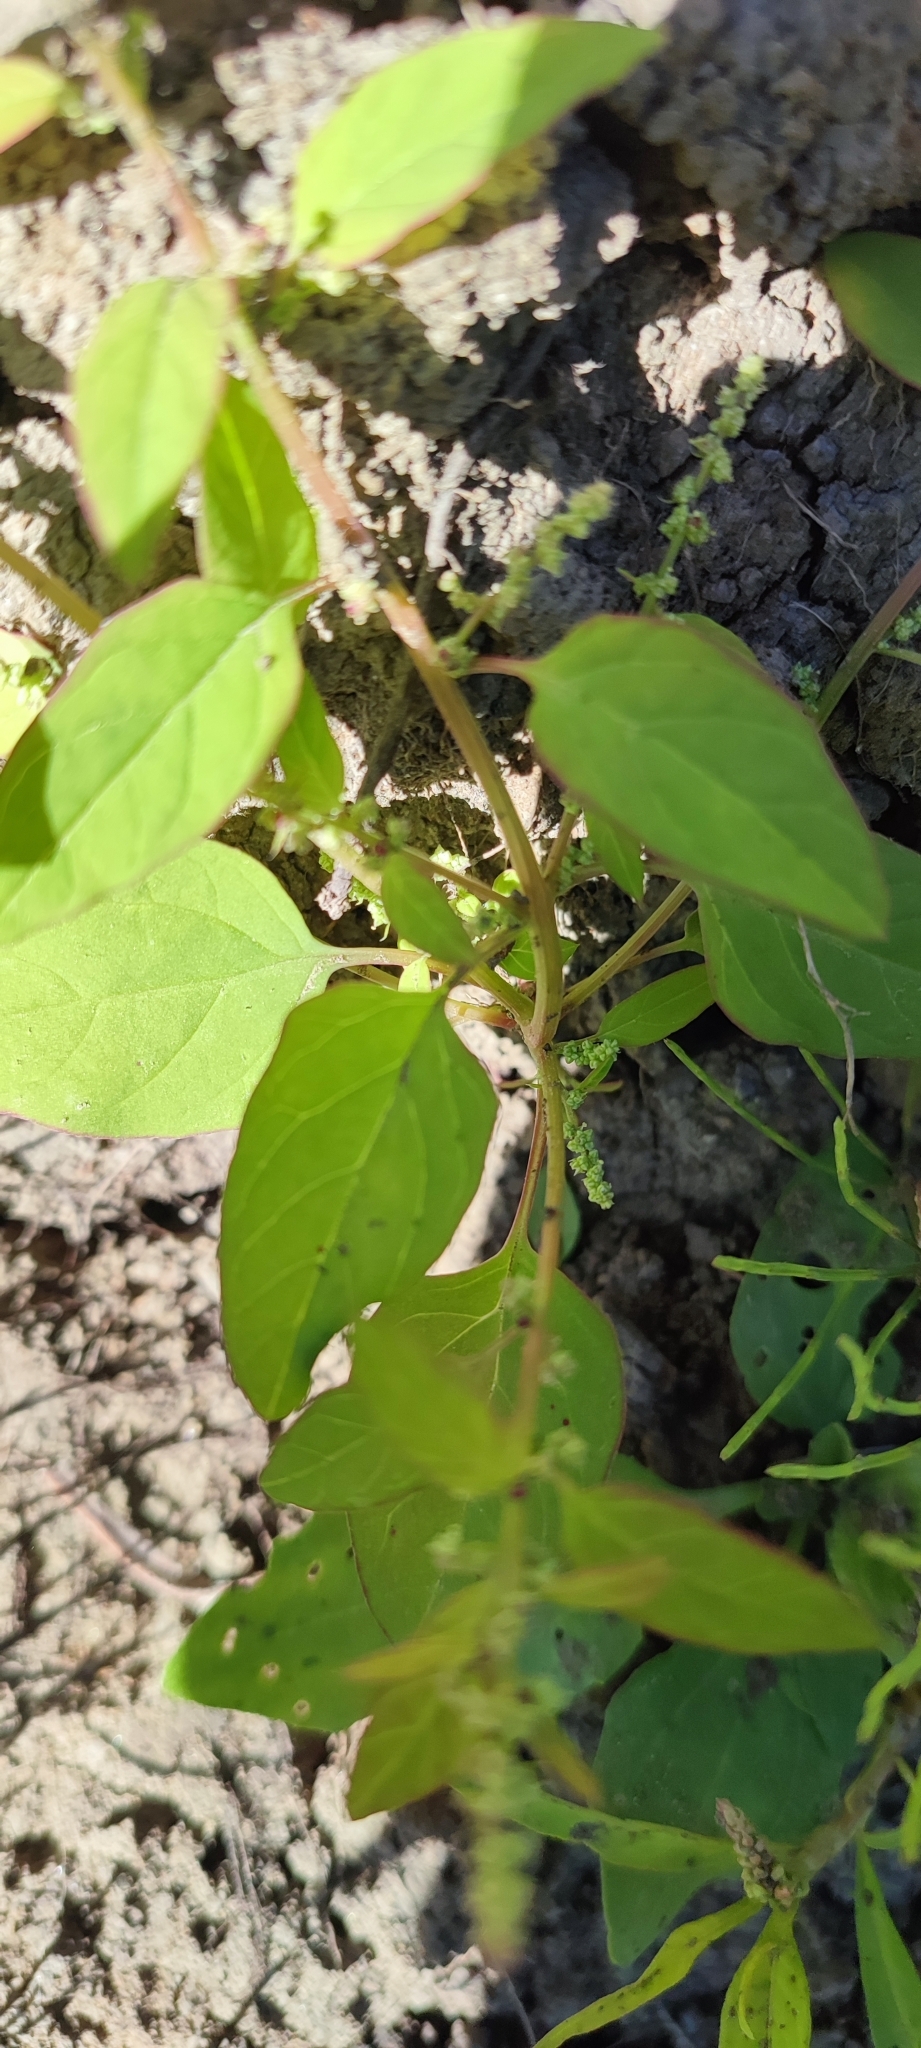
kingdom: Plantae
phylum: Tracheophyta
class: Magnoliopsida
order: Caryophyllales
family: Amaranthaceae
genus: Lipandra
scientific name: Lipandra polysperma
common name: Many-seed goosefoot
